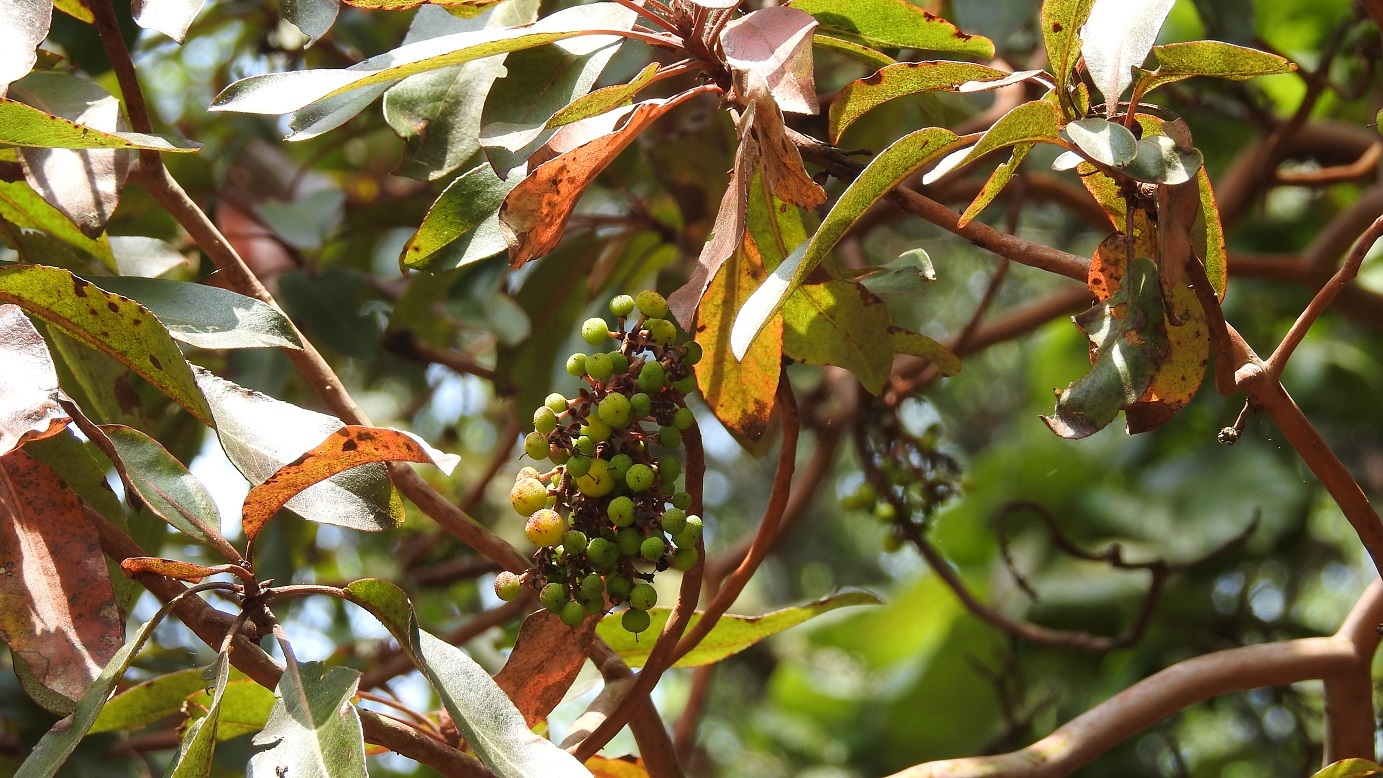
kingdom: Plantae
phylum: Tracheophyta
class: Magnoliopsida
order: Ericales
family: Ericaceae
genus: Arbutus
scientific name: Arbutus xalapensis
